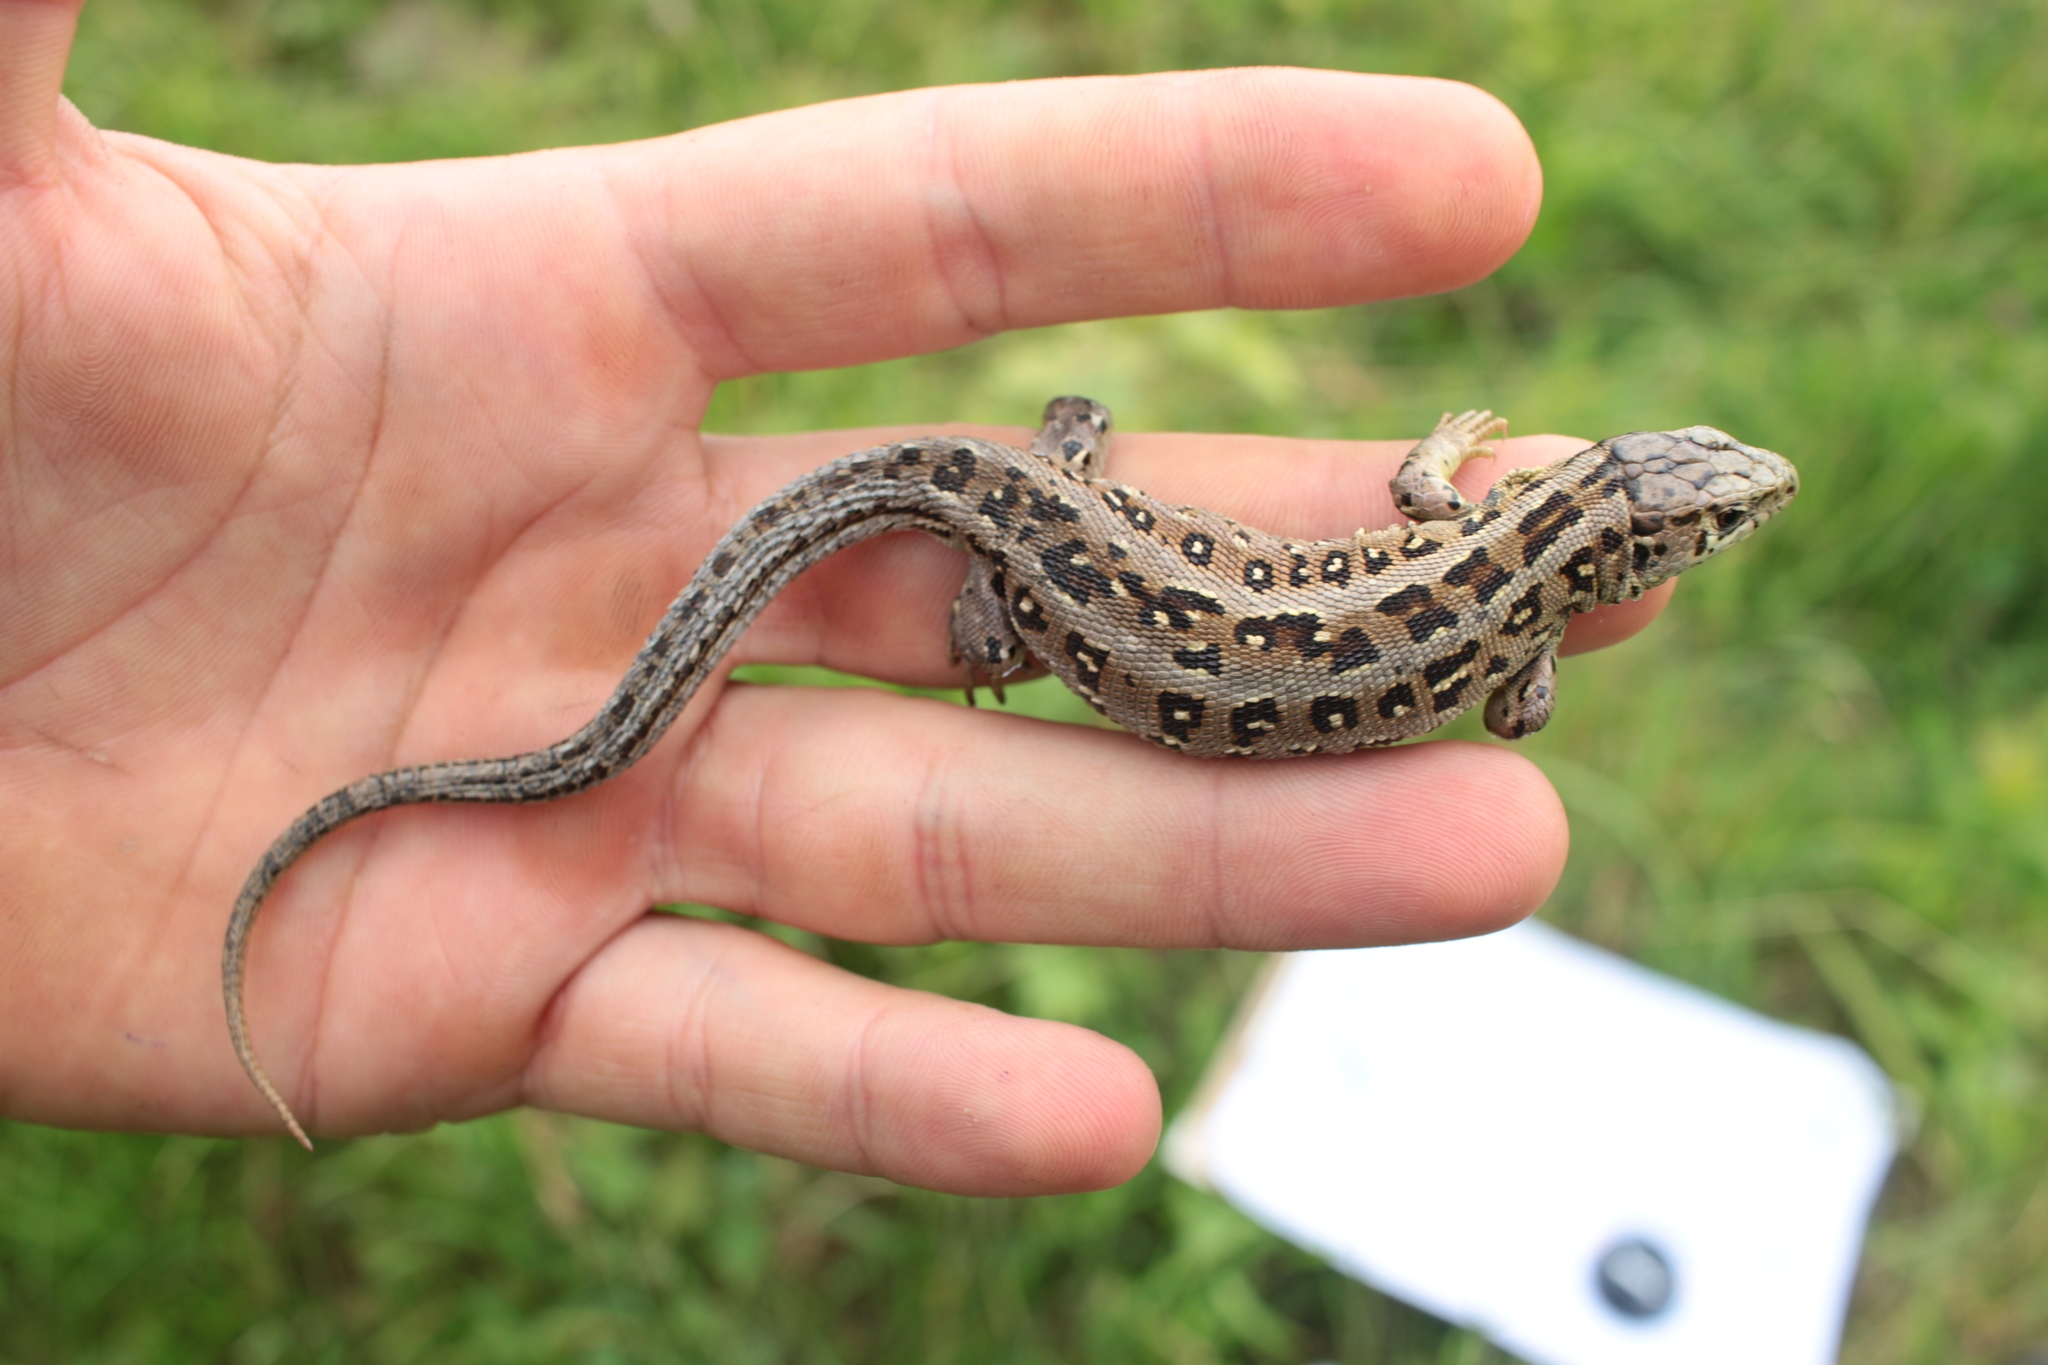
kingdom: Animalia
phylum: Chordata
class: Squamata
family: Lacertidae
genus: Lacerta
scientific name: Lacerta agilis
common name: Sand lizard
